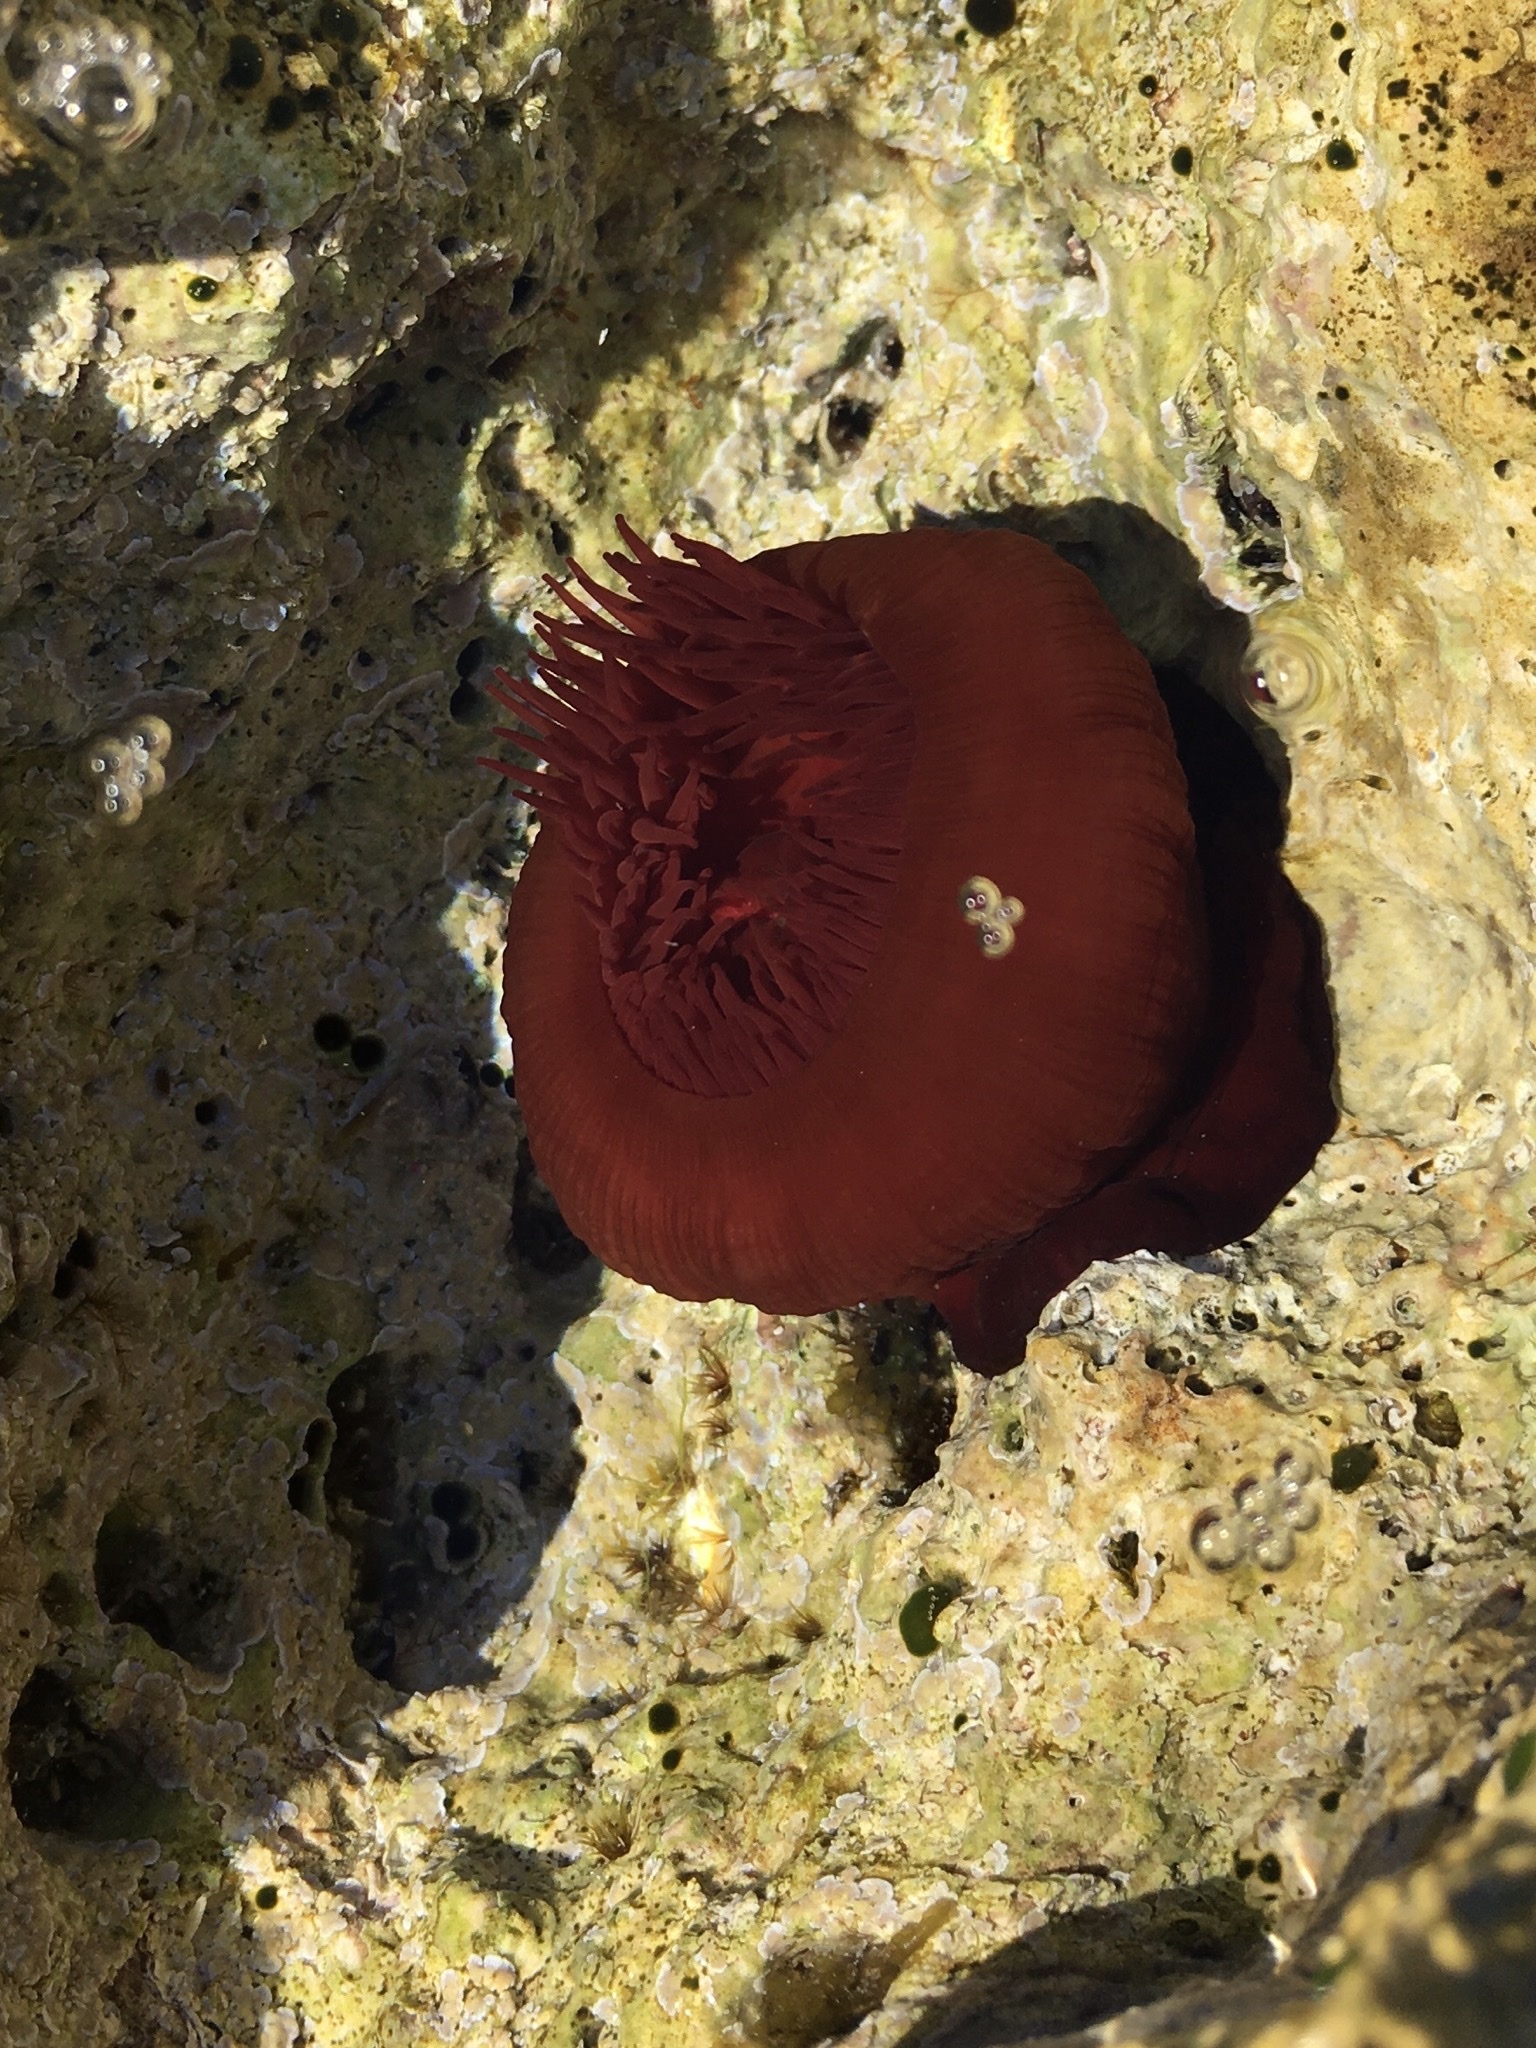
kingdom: Animalia
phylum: Cnidaria
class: Anthozoa
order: Actiniaria
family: Actiniidae
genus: Actinia
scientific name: Actinia mediterranea
